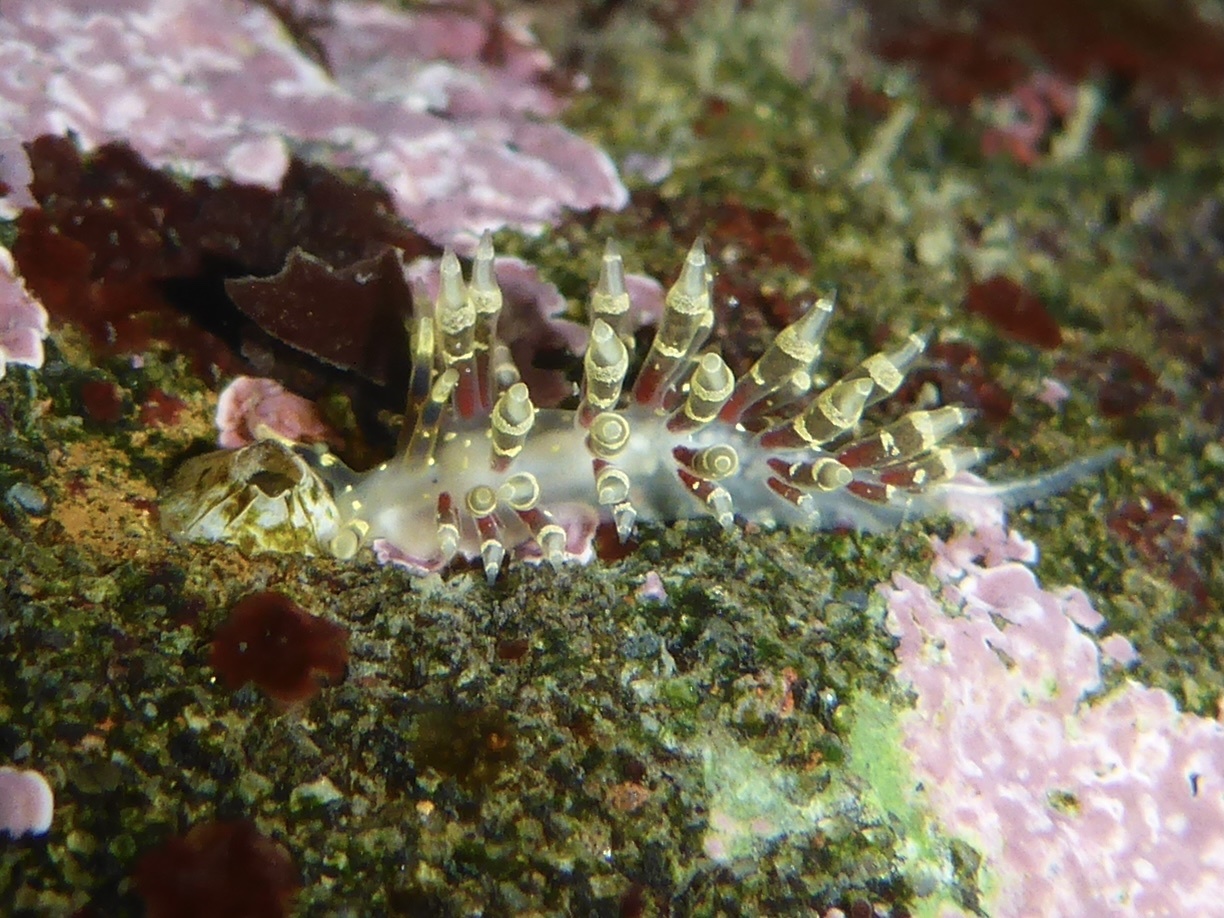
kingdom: Animalia
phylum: Mollusca
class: Gastropoda
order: Nudibranchia
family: Abronicidae
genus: Abronica
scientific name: Abronica abronia
